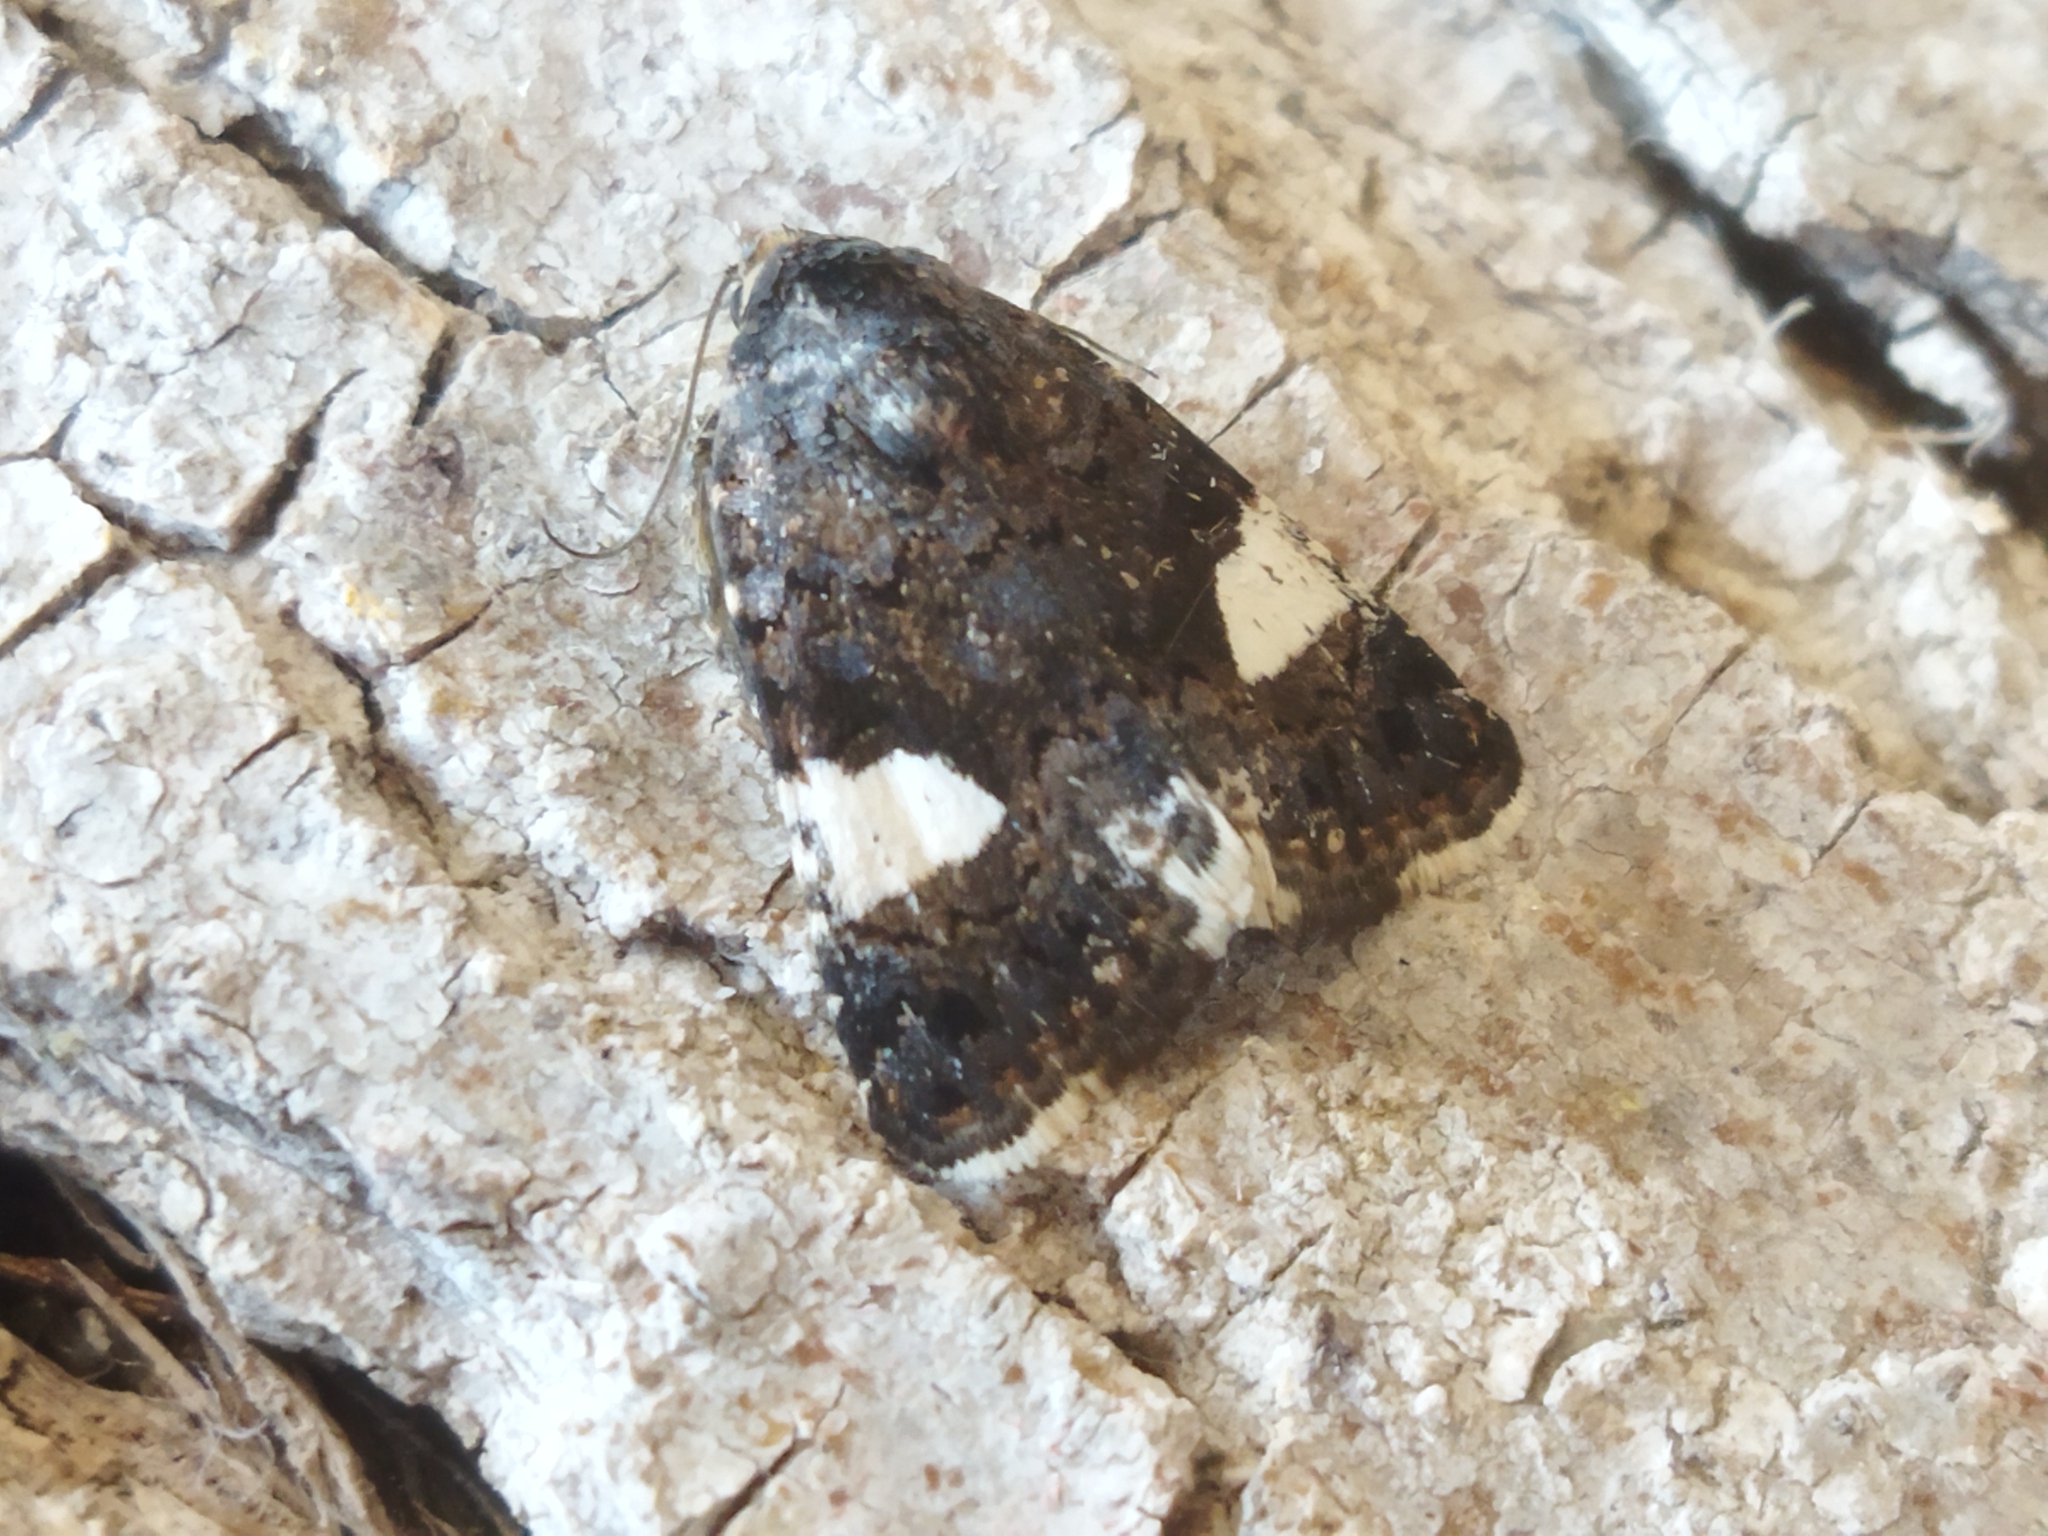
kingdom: Animalia
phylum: Arthropoda
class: Insecta
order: Lepidoptera
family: Erebidae
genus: Tyta
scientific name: Tyta luctuosa
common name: Four-spotted
